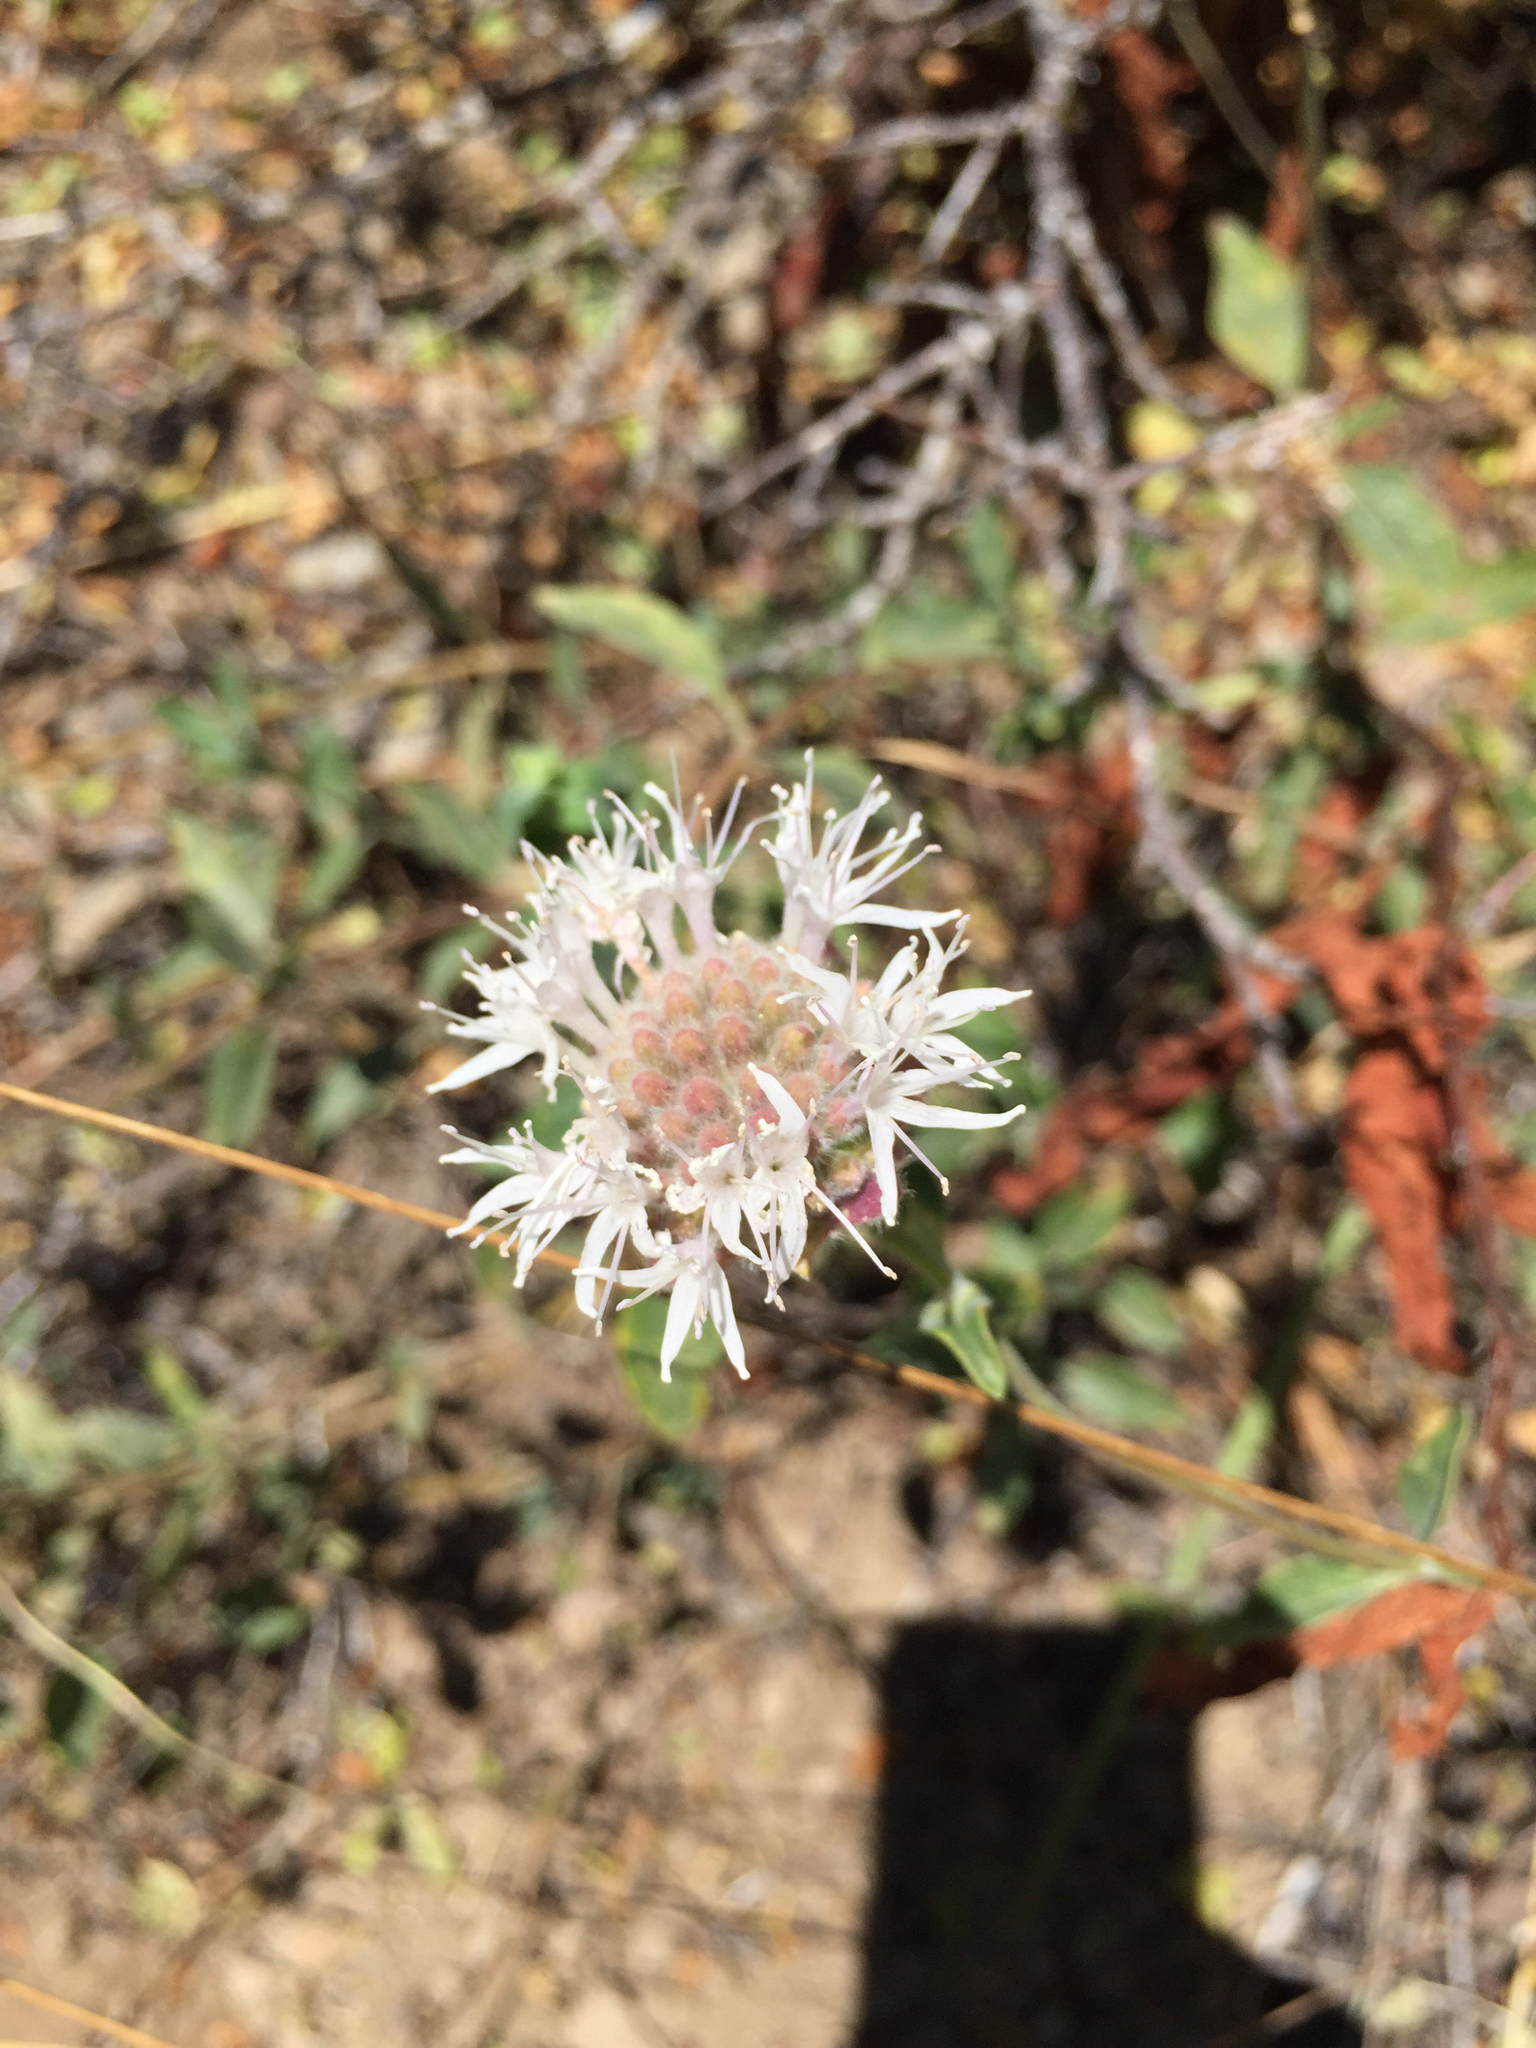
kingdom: Plantae
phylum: Tracheophyta
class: Magnoliopsida
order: Lamiales
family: Lamiaceae
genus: Monardella
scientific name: Monardella odoratissima
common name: Pacific monardella
